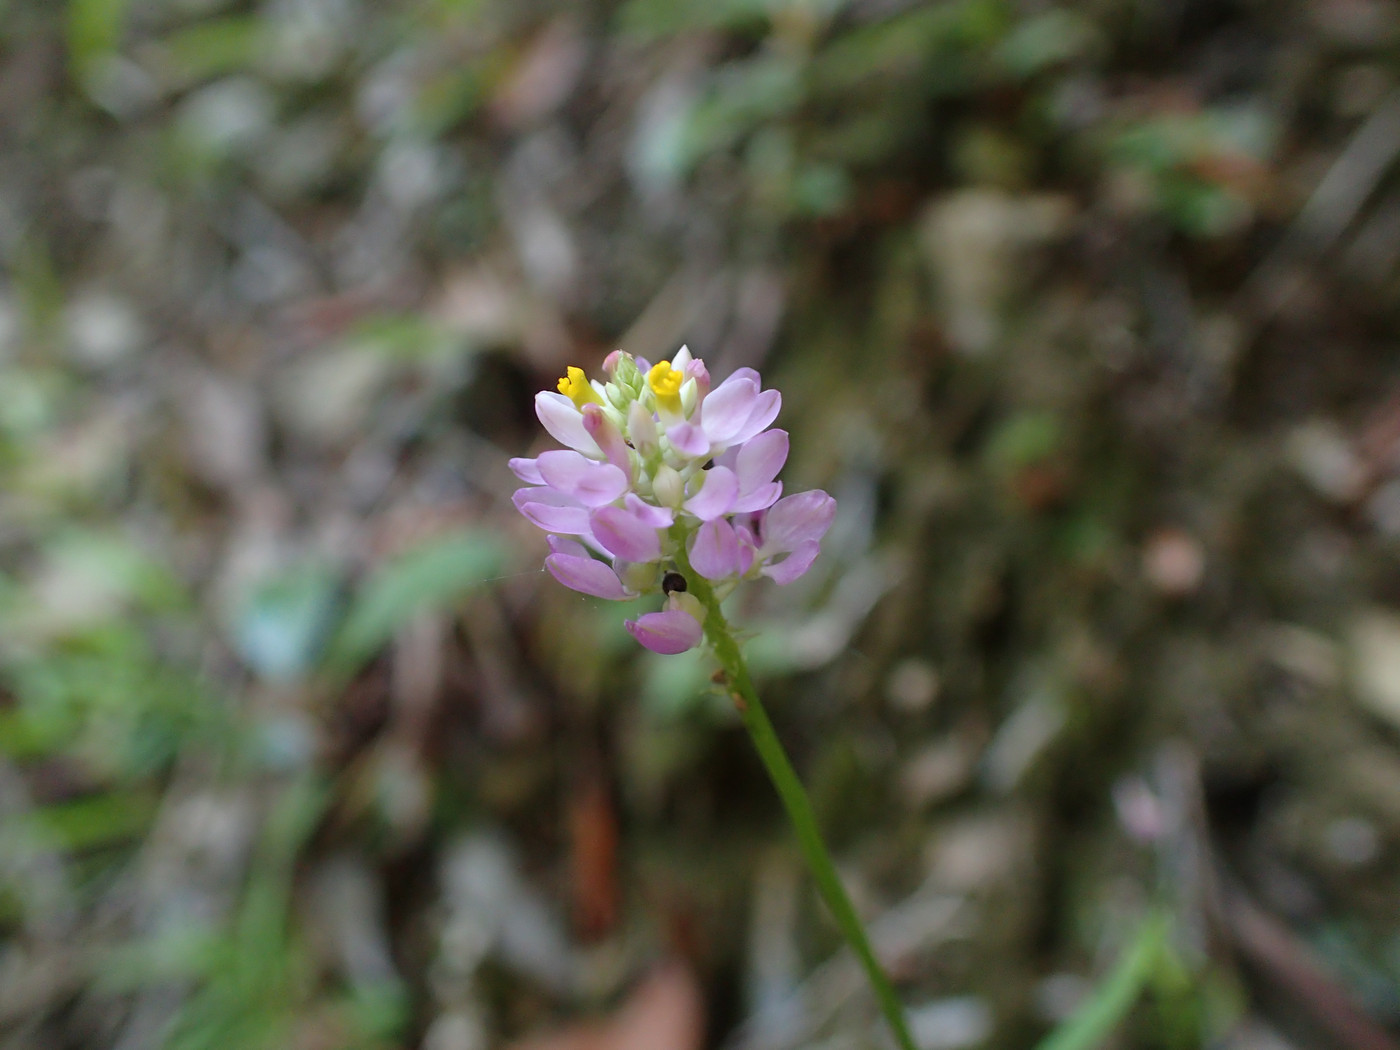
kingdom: Plantae
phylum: Tracheophyta
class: Magnoliopsida
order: Fabales
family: Polygalaceae
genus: Polygala
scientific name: Polygala curtissii
